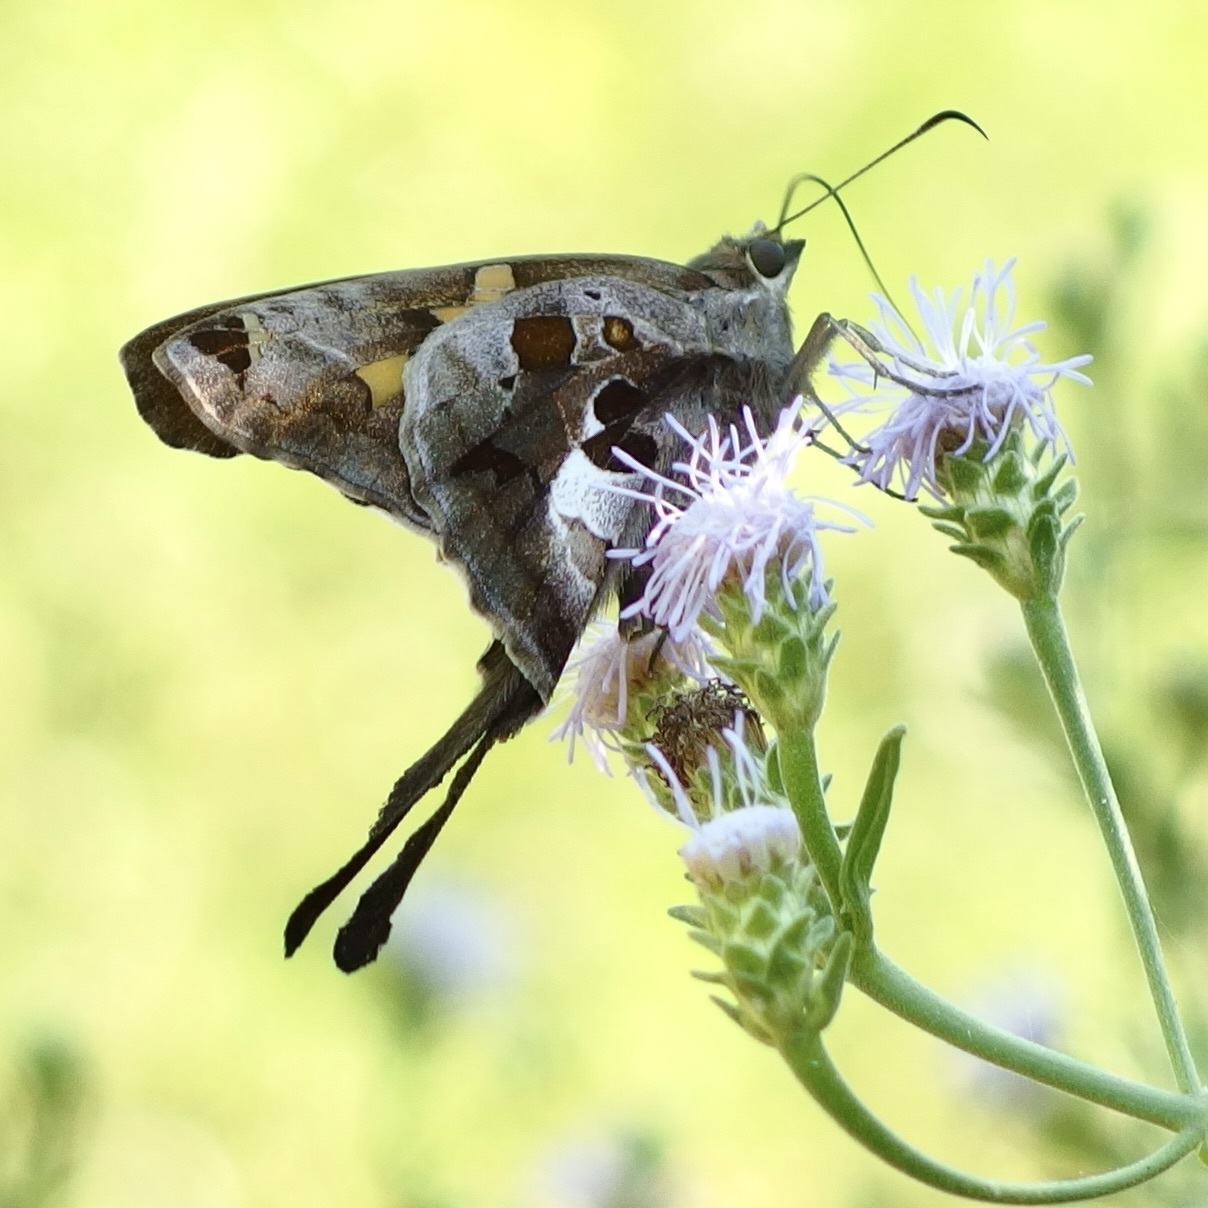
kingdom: Animalia
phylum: Arthropoda
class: Insecta
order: Lepidoptera
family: Hesperiidae
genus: Chioides
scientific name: Chioides zilpa
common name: Zilpa longtail
